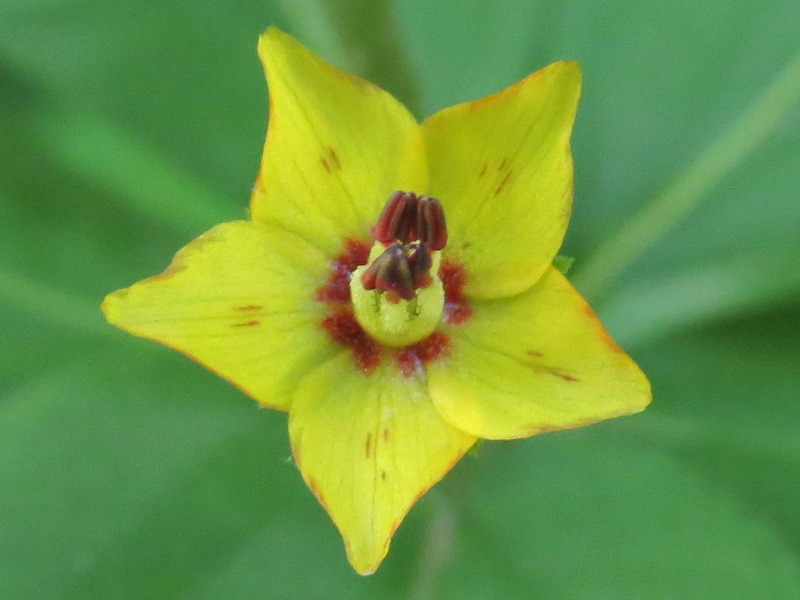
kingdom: Plantae
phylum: Tracheophyta
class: Magnoliopsida
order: Ericales
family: Primulaceae
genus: Lysimachia
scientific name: Lysimachia quadrifolia
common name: Whorled loosestrife
